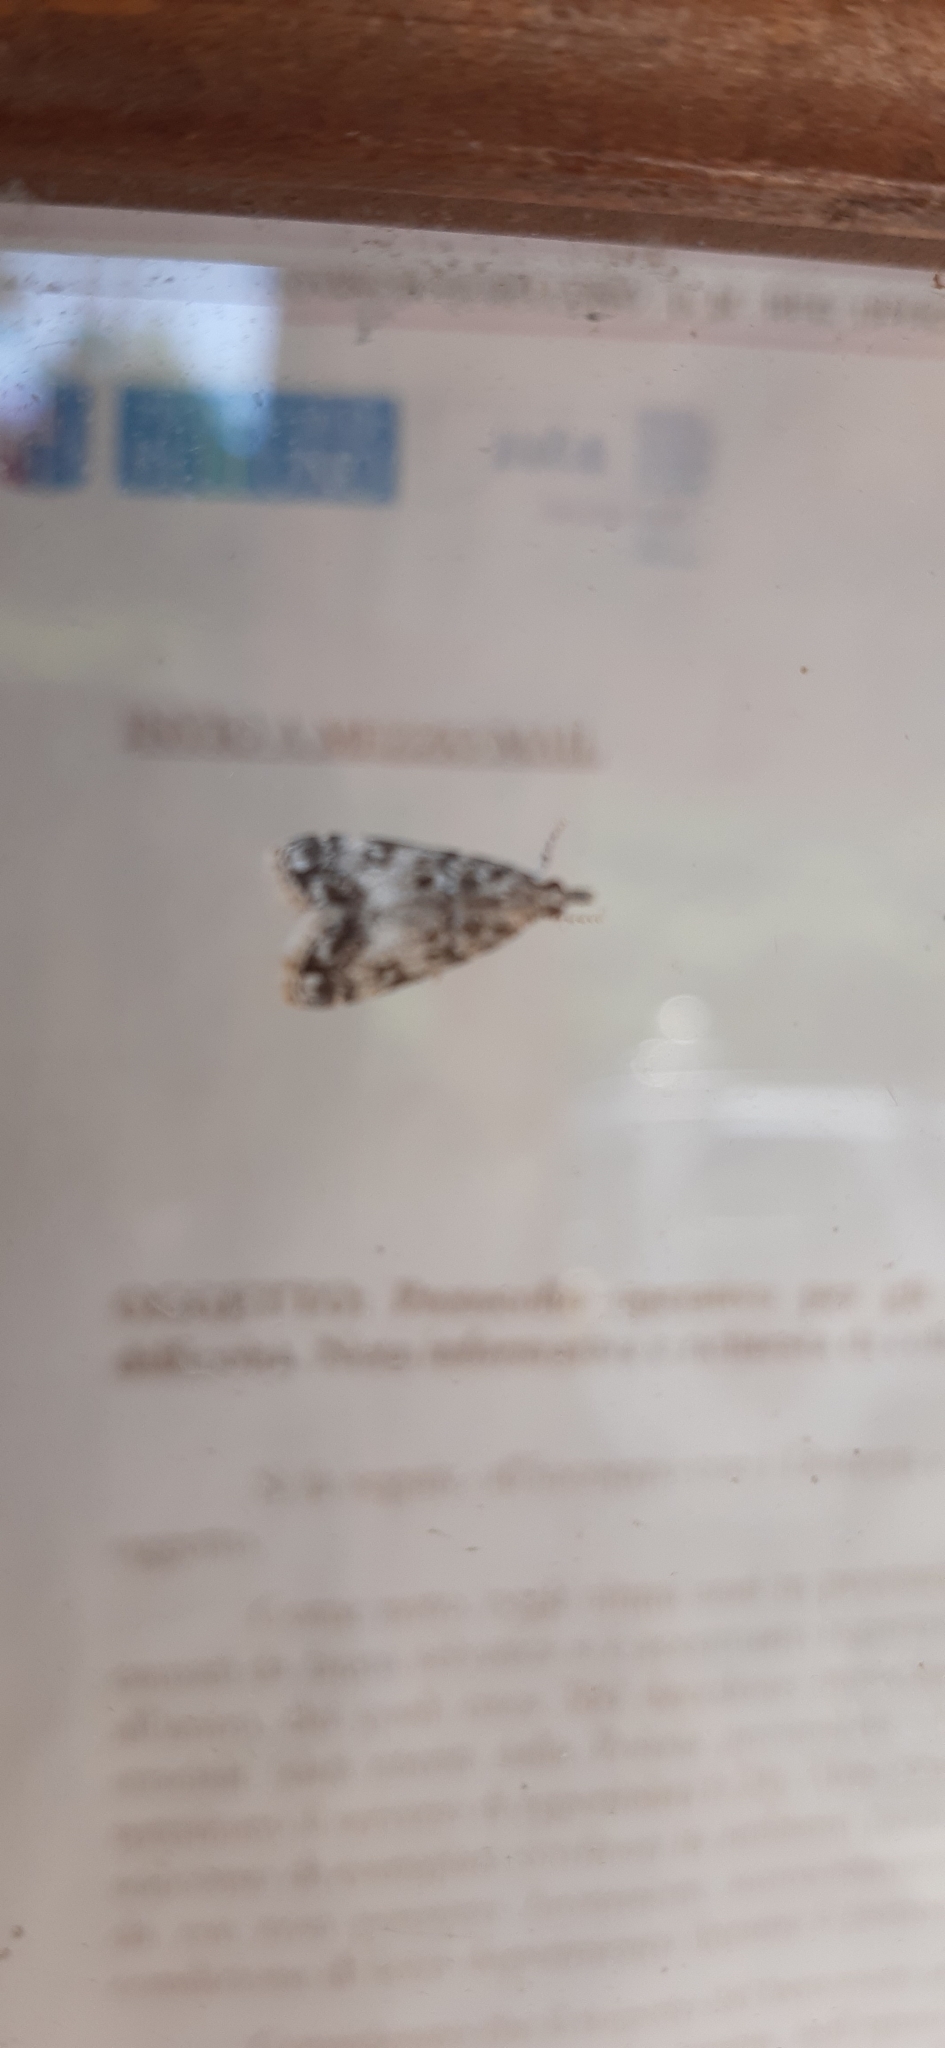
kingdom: Animalia
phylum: Arthropoda
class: Insecta
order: Lepidoptera
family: Crambidae
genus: Eudonia
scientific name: Eudonia lacustrata
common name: Little grey
